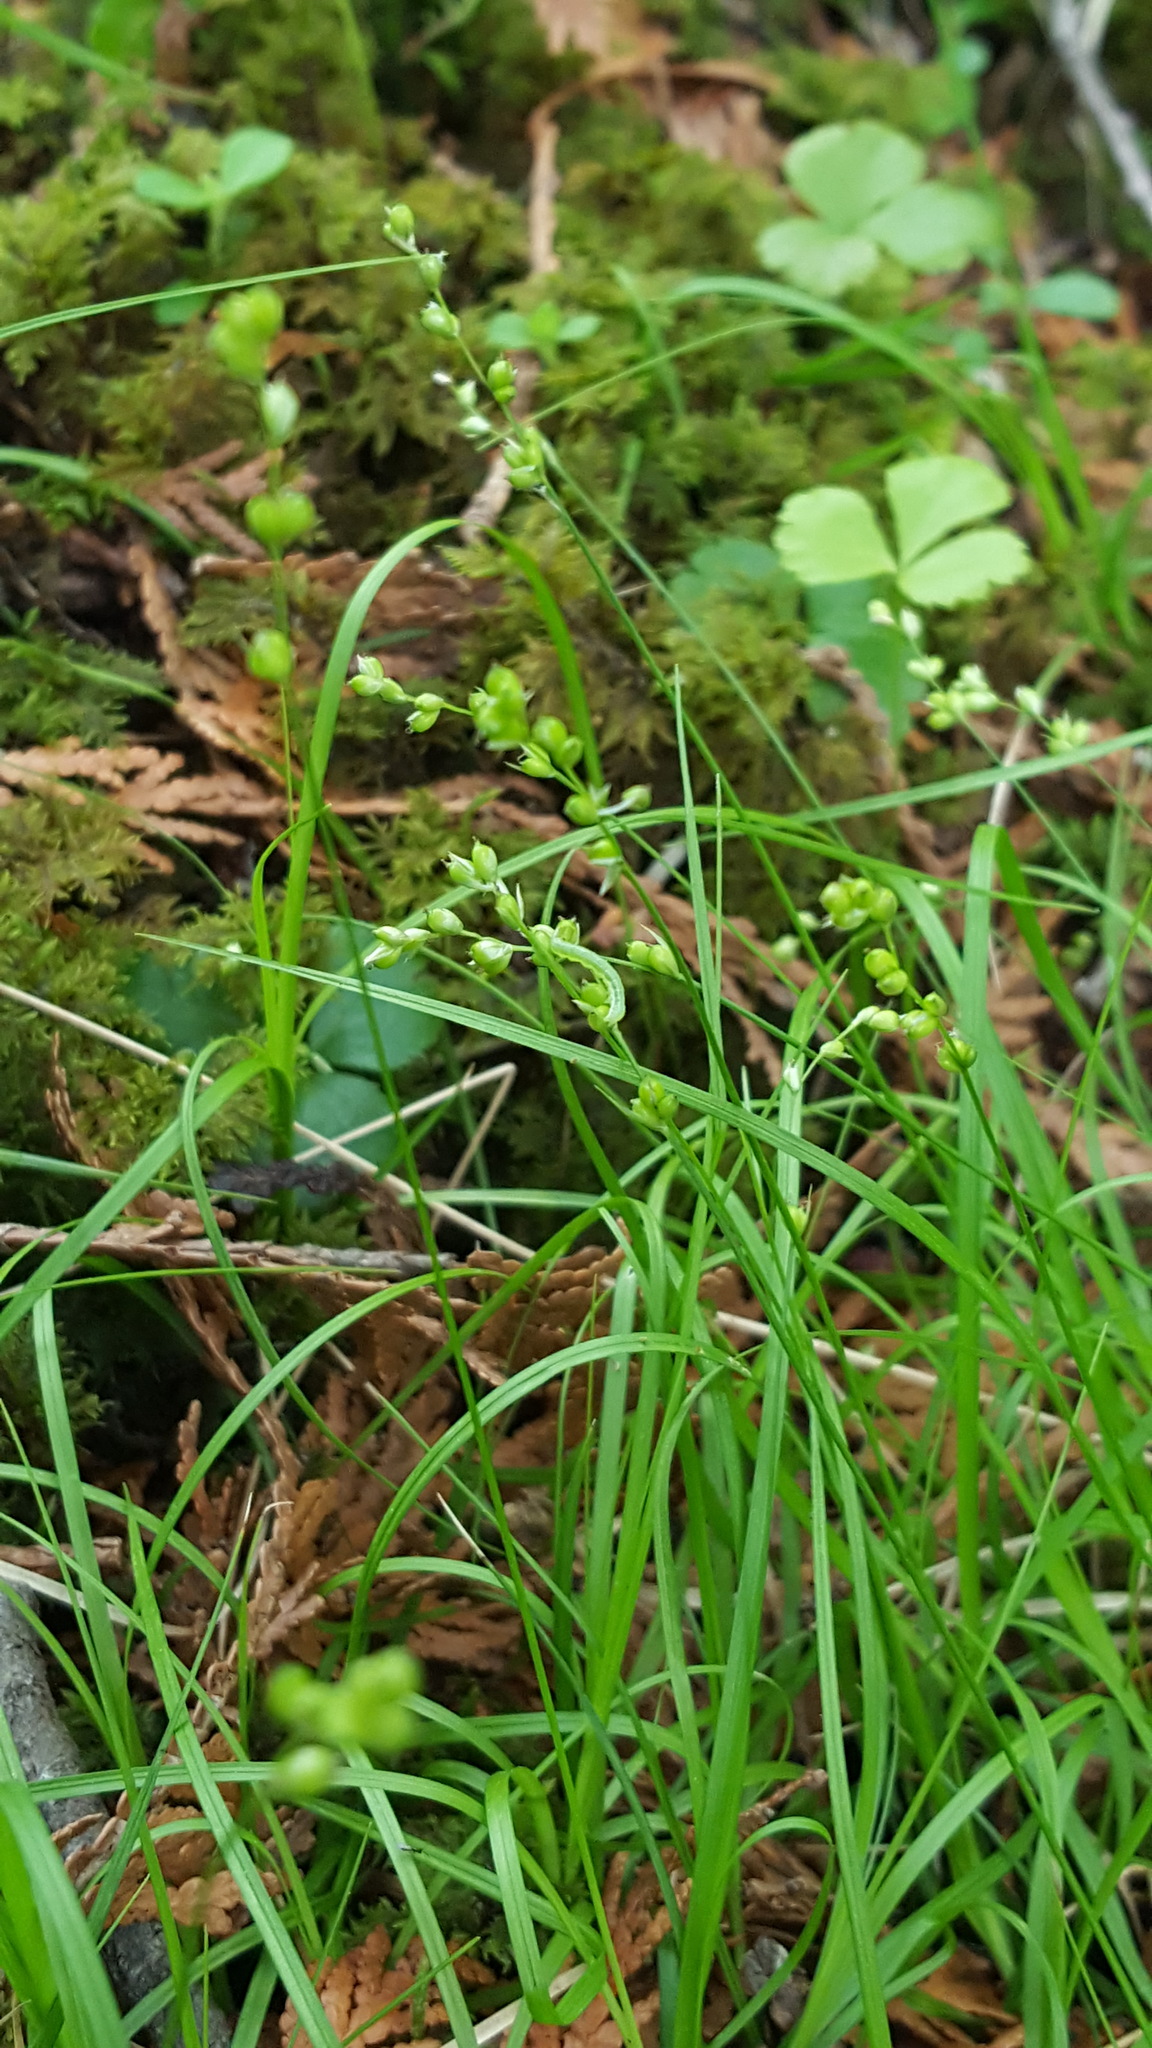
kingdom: Plantae
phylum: Tracheophyta
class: Liliopsida
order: Poales
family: Cyperaceae
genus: Carex
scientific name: Carex disperma
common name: Short-leaved sedge
